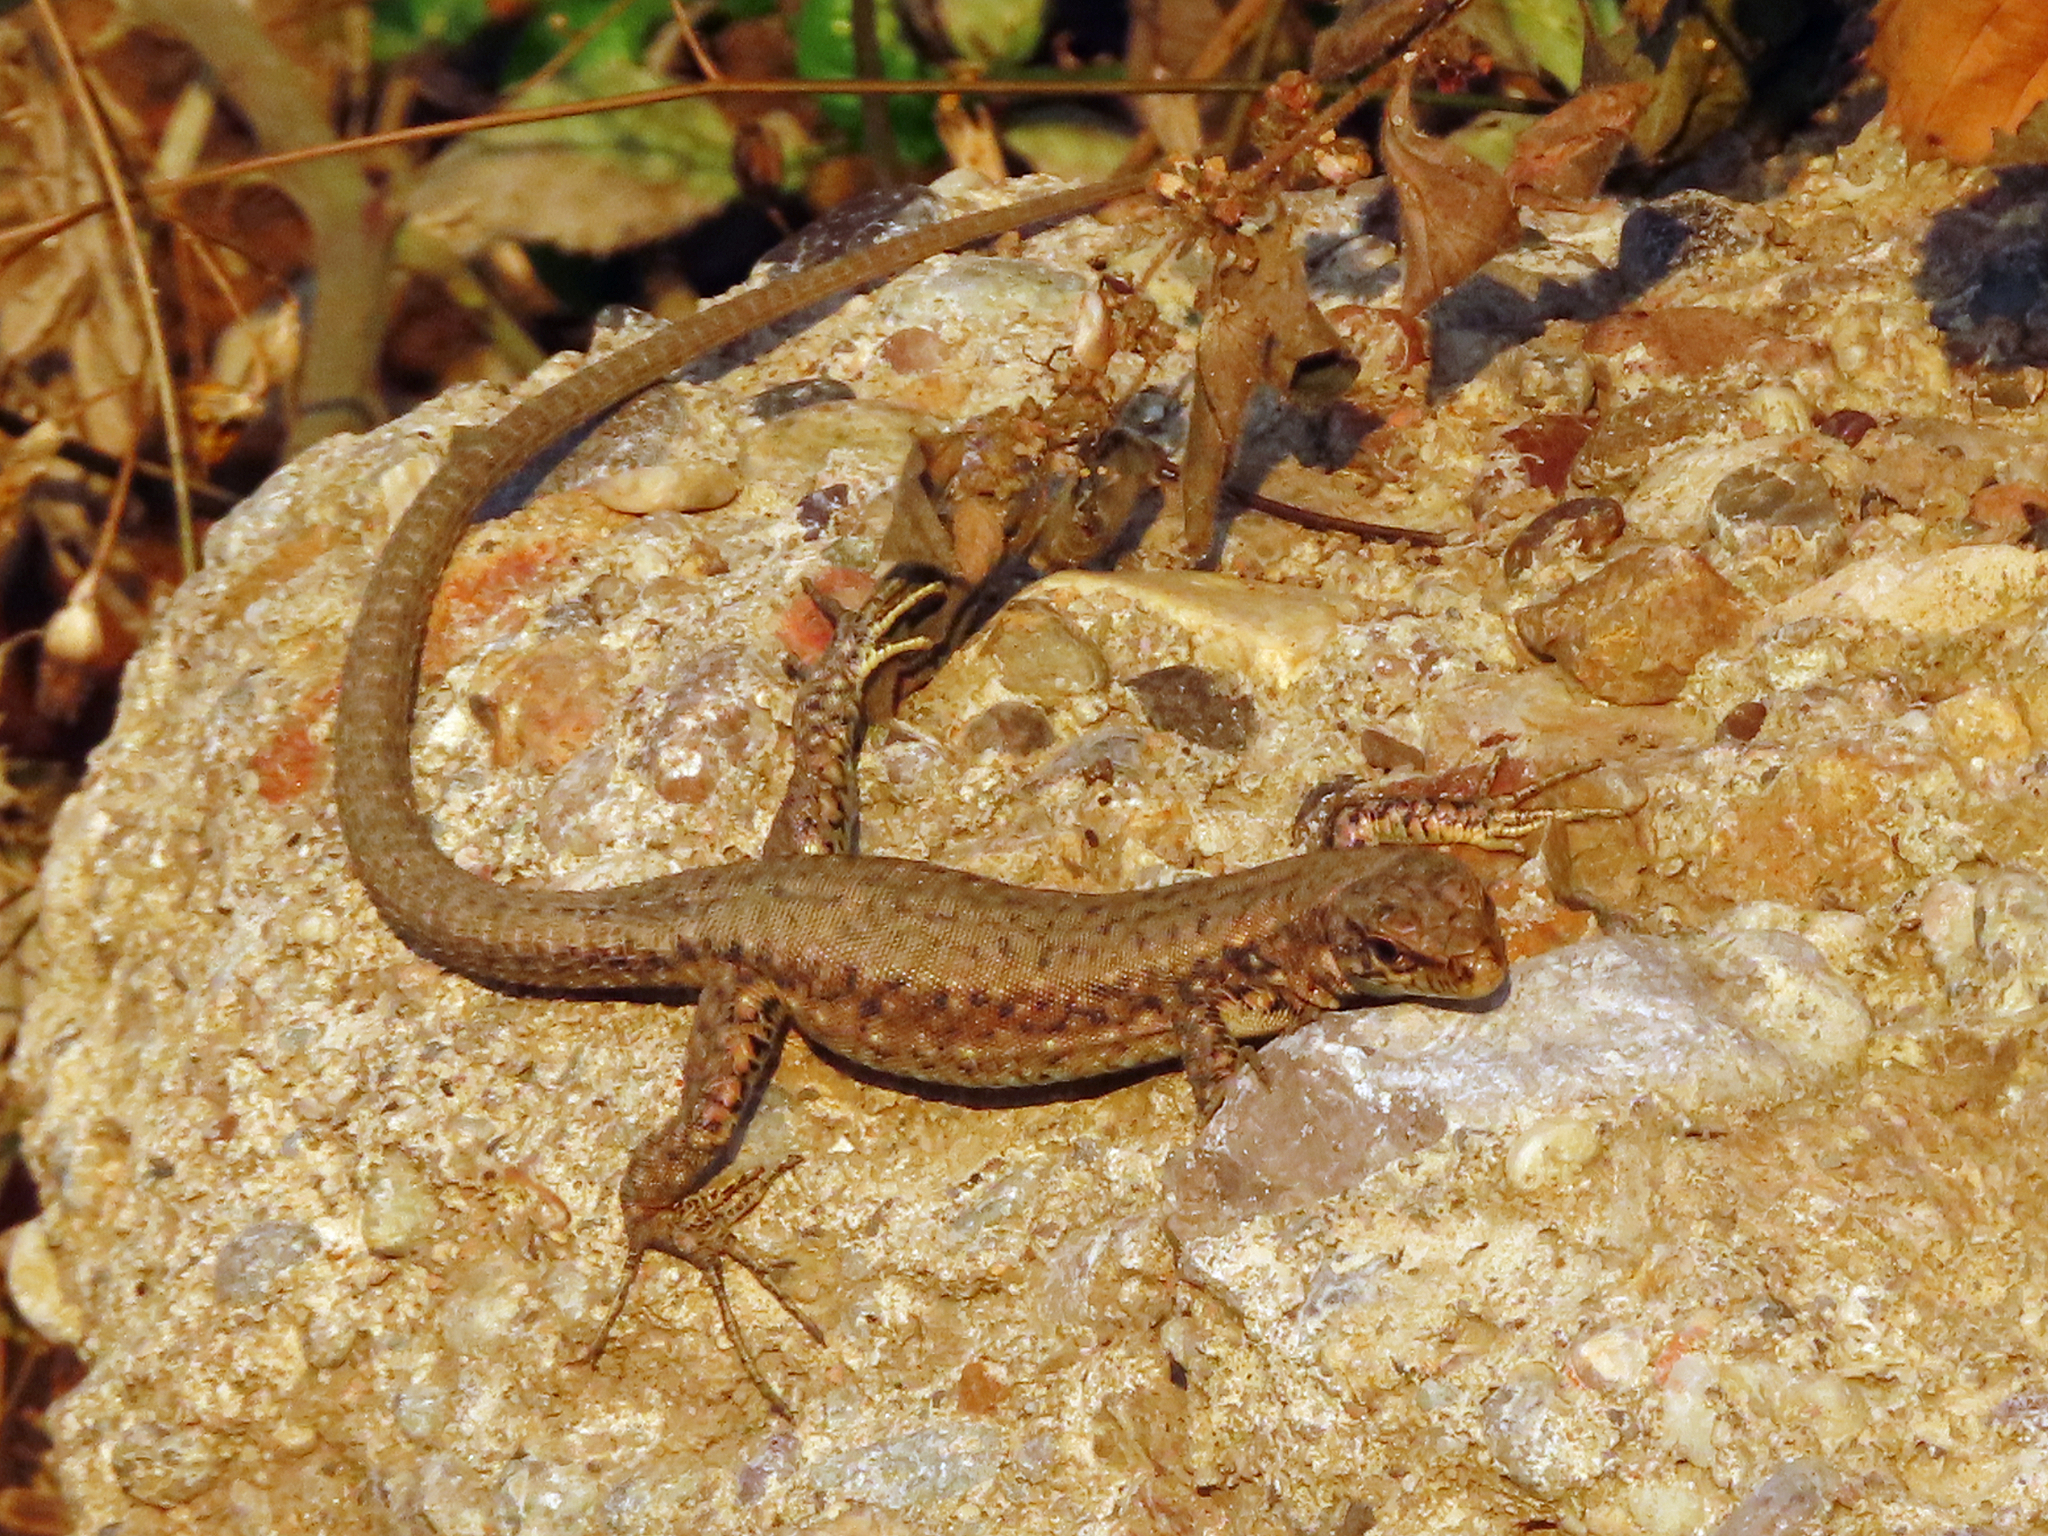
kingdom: Animalia
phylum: Chordata
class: Squamata
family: Lacertidae
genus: Darevskia
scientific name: Darevskia bithynica
